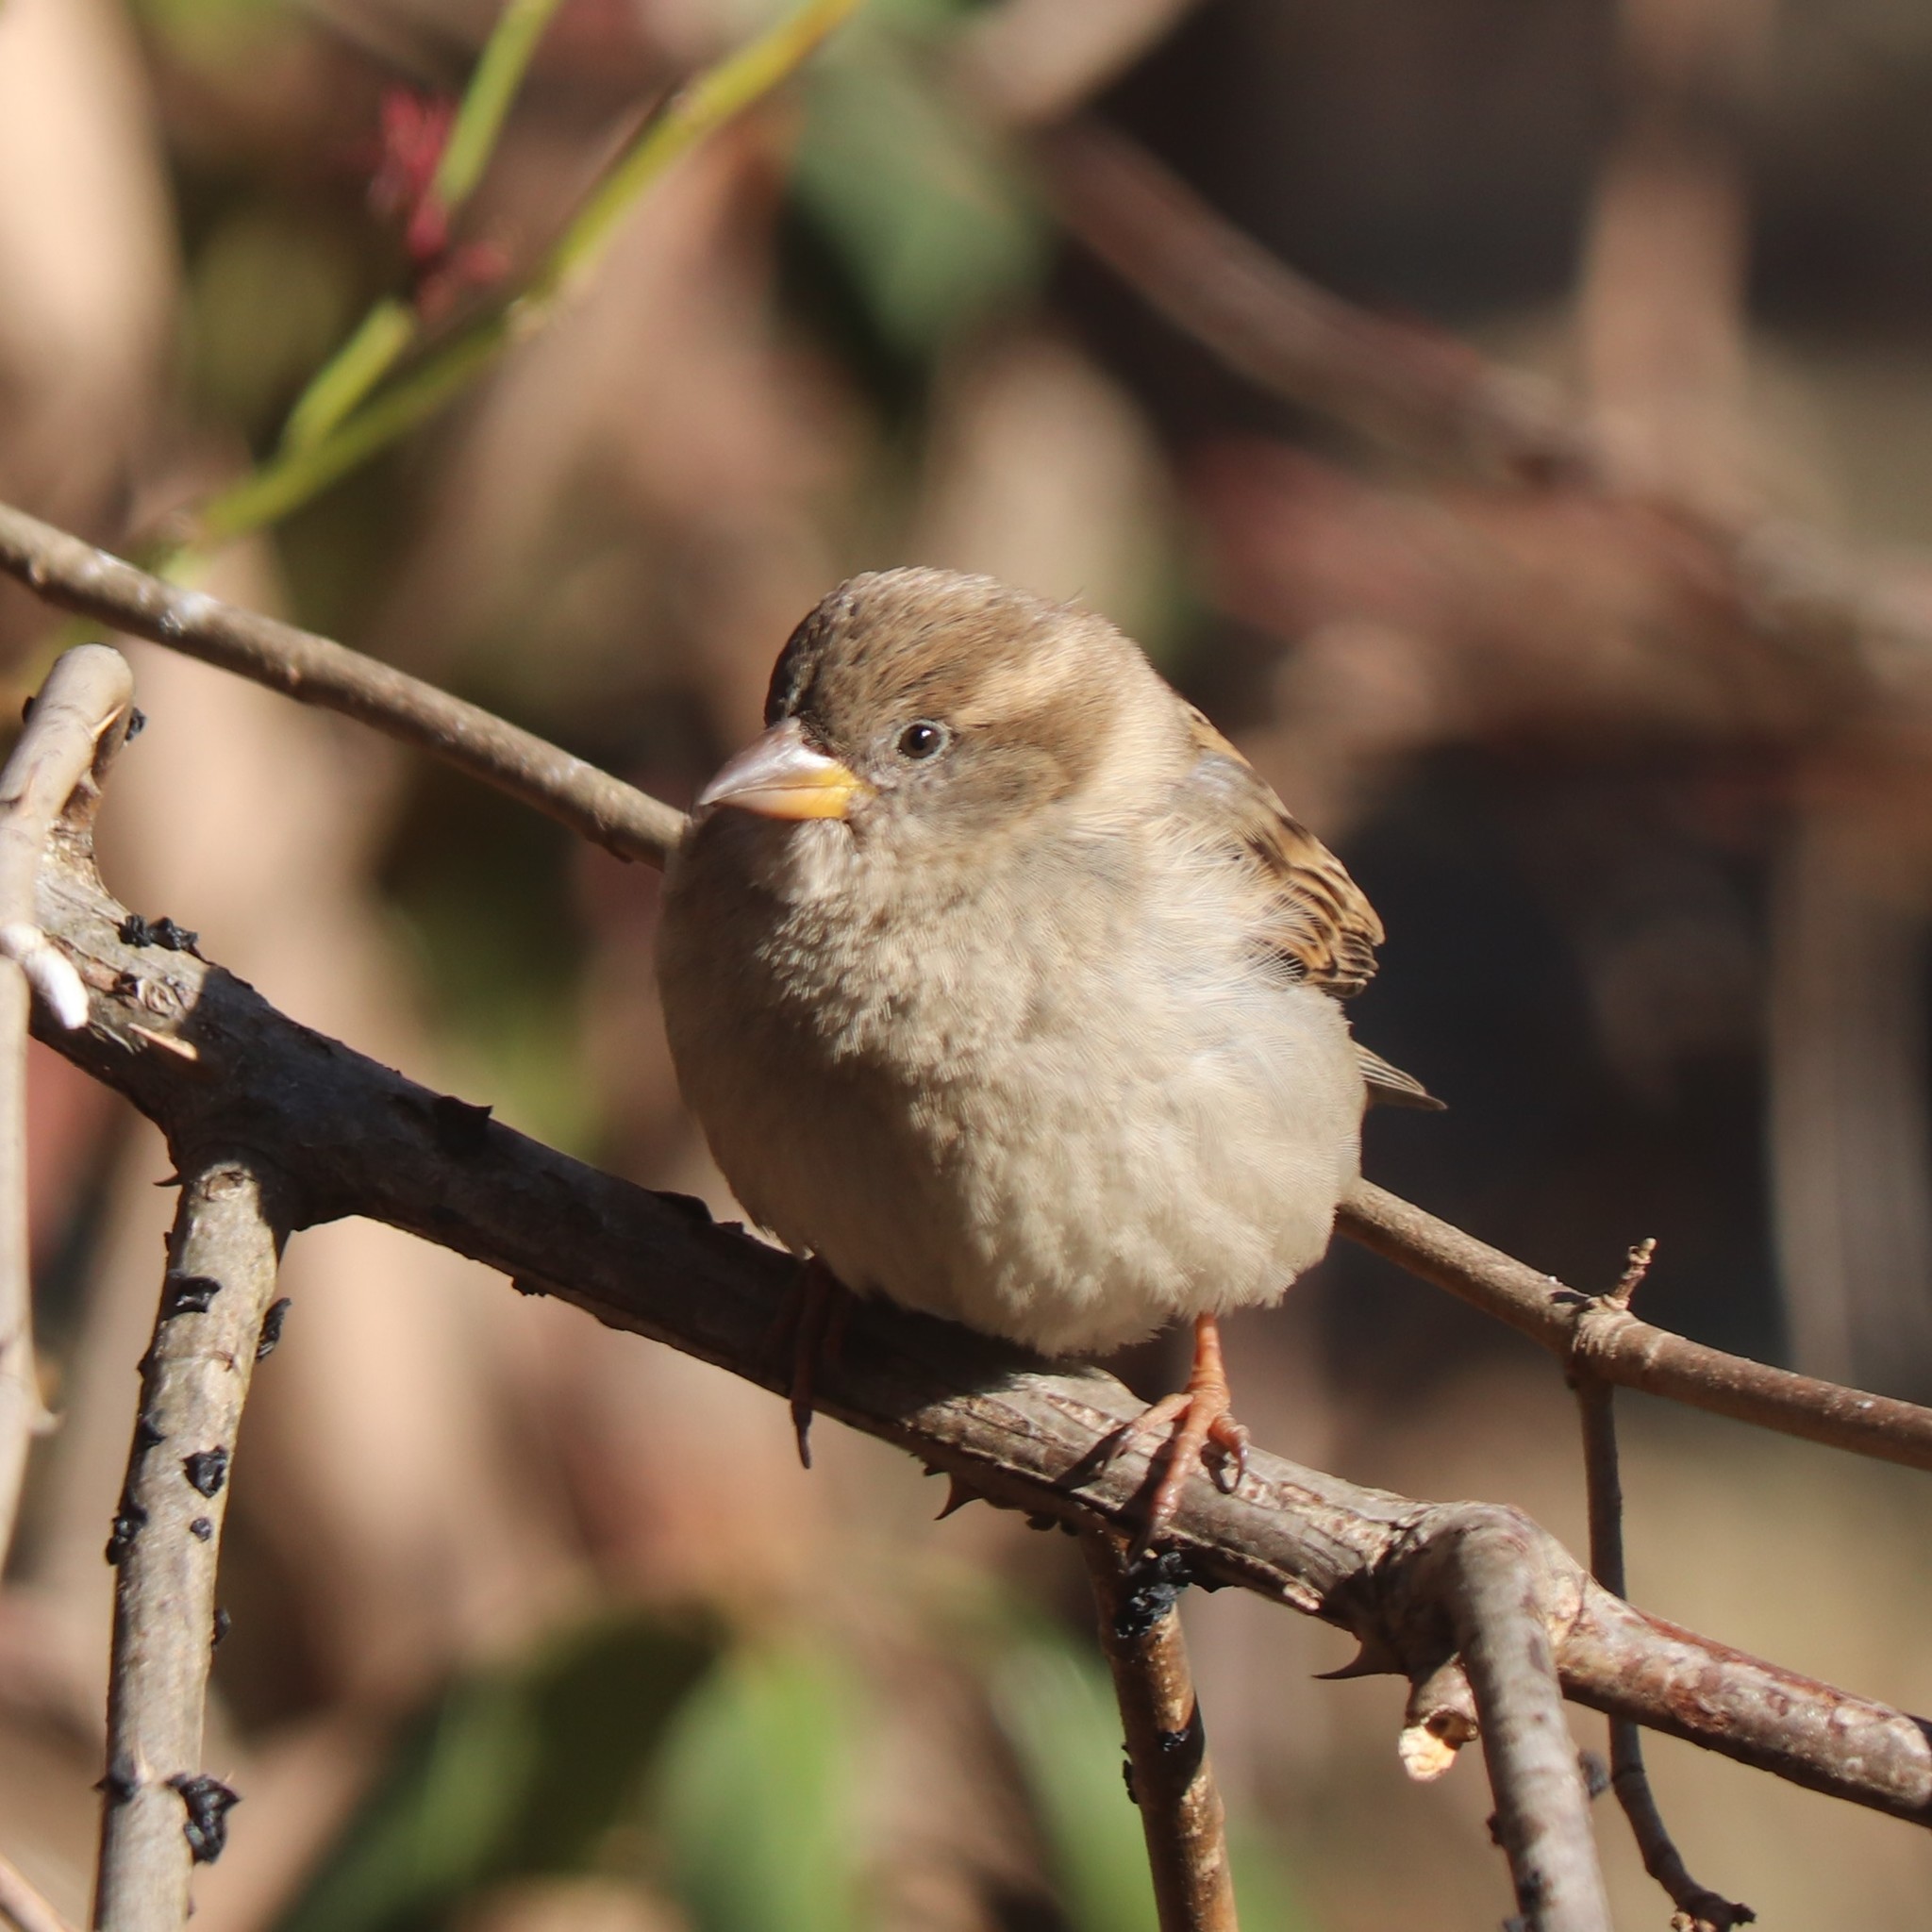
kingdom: Animalia
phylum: Chordata
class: Aves
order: Passeriformes
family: Passeridae
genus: Passer
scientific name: Passer domesticus
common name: House sparrow
